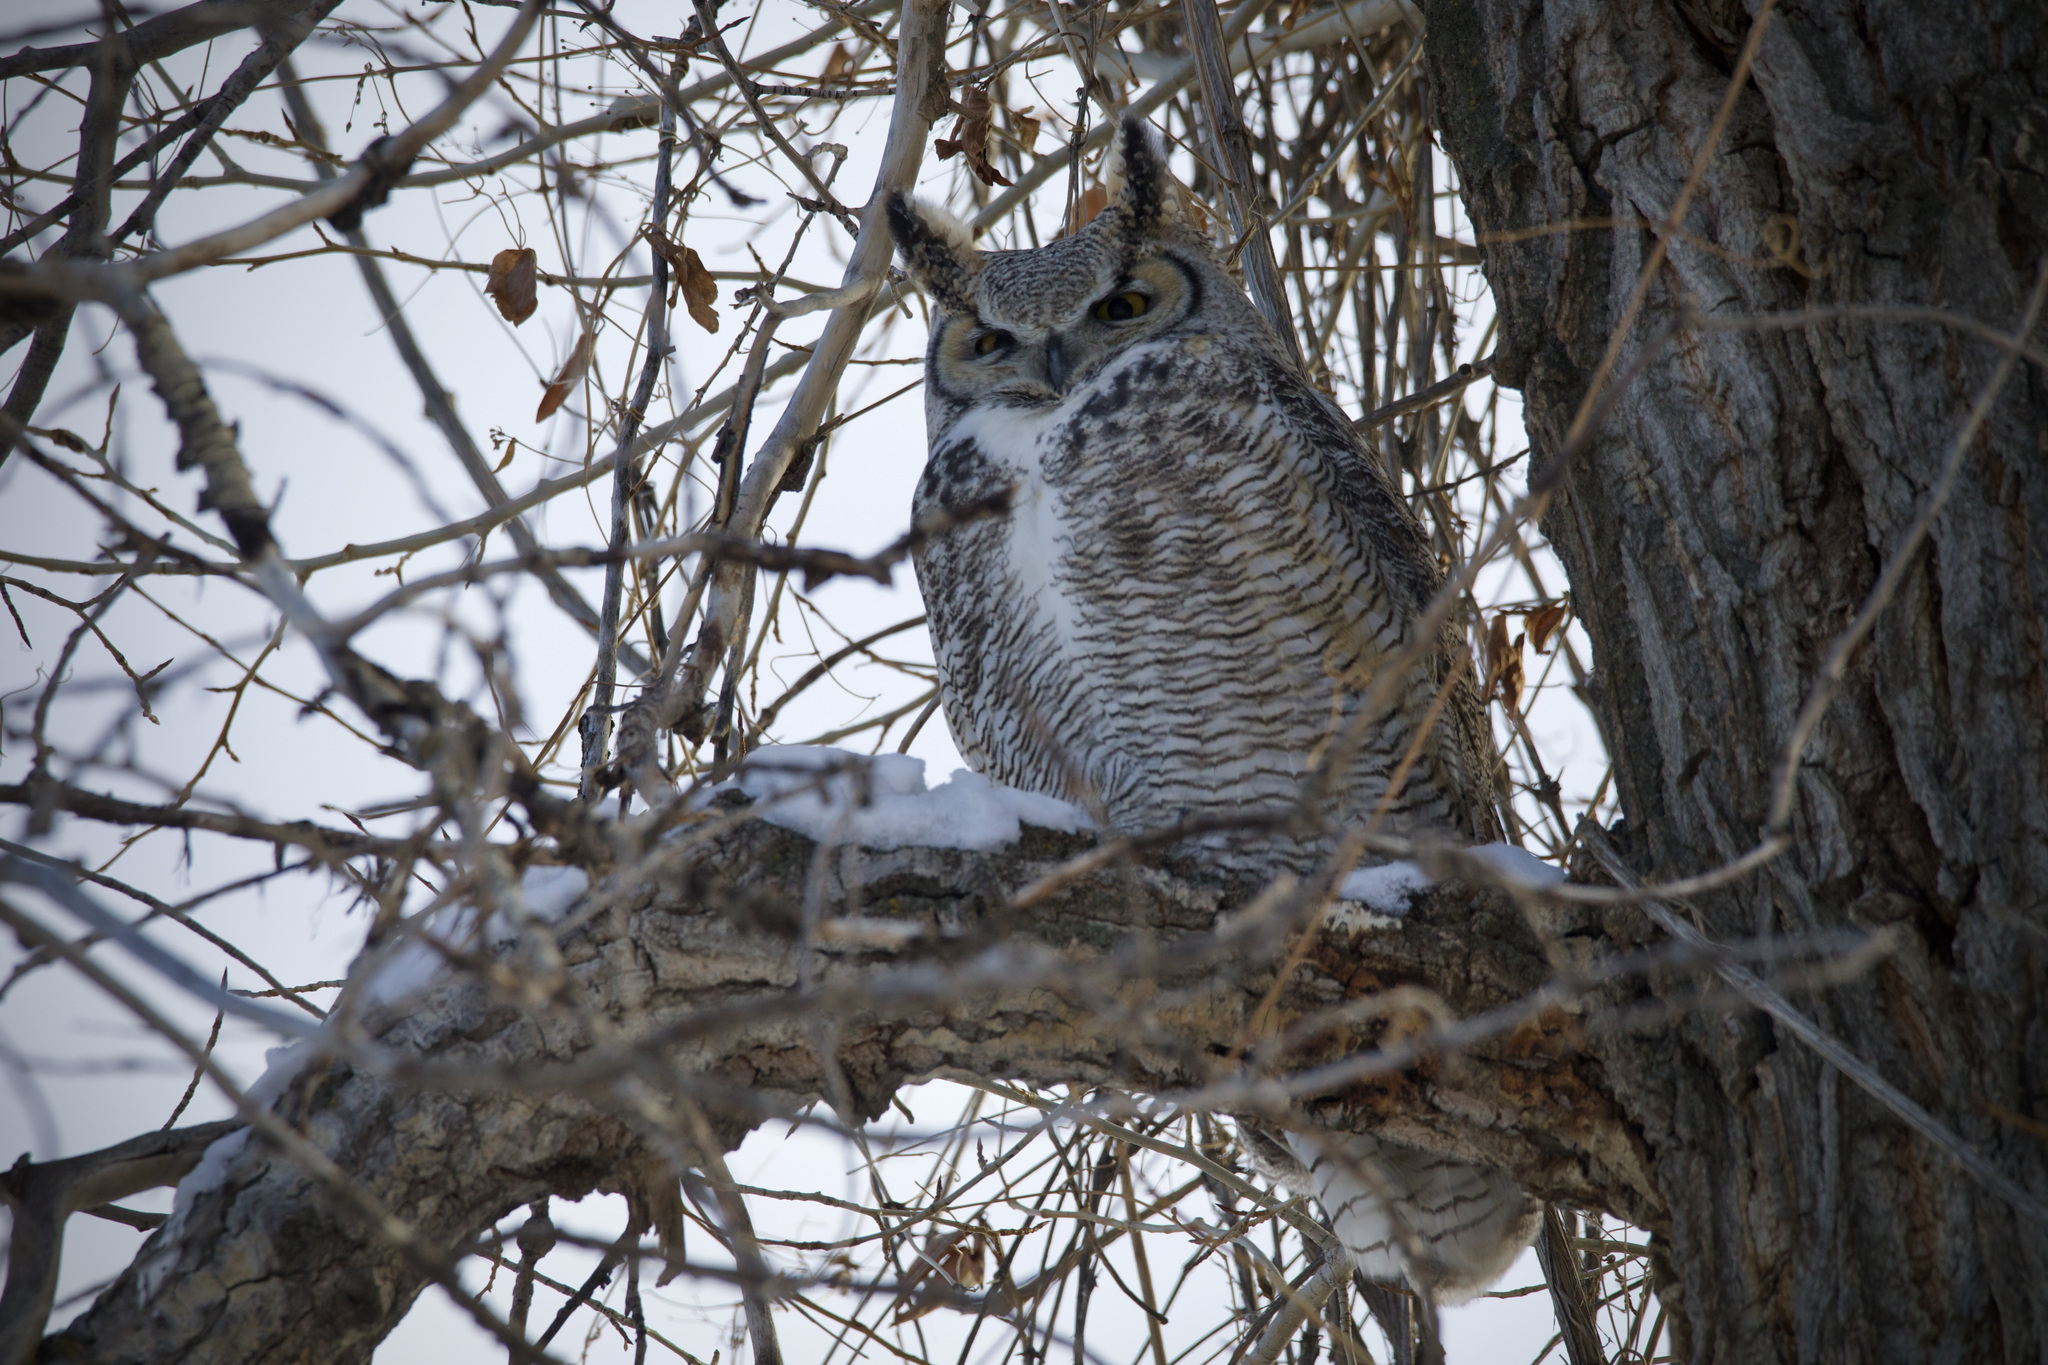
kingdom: Animalia
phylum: Chordata
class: Aves
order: Strigiformes
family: Strigidae
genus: Bubo
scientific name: Bubo virginianus
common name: Great horned owl
